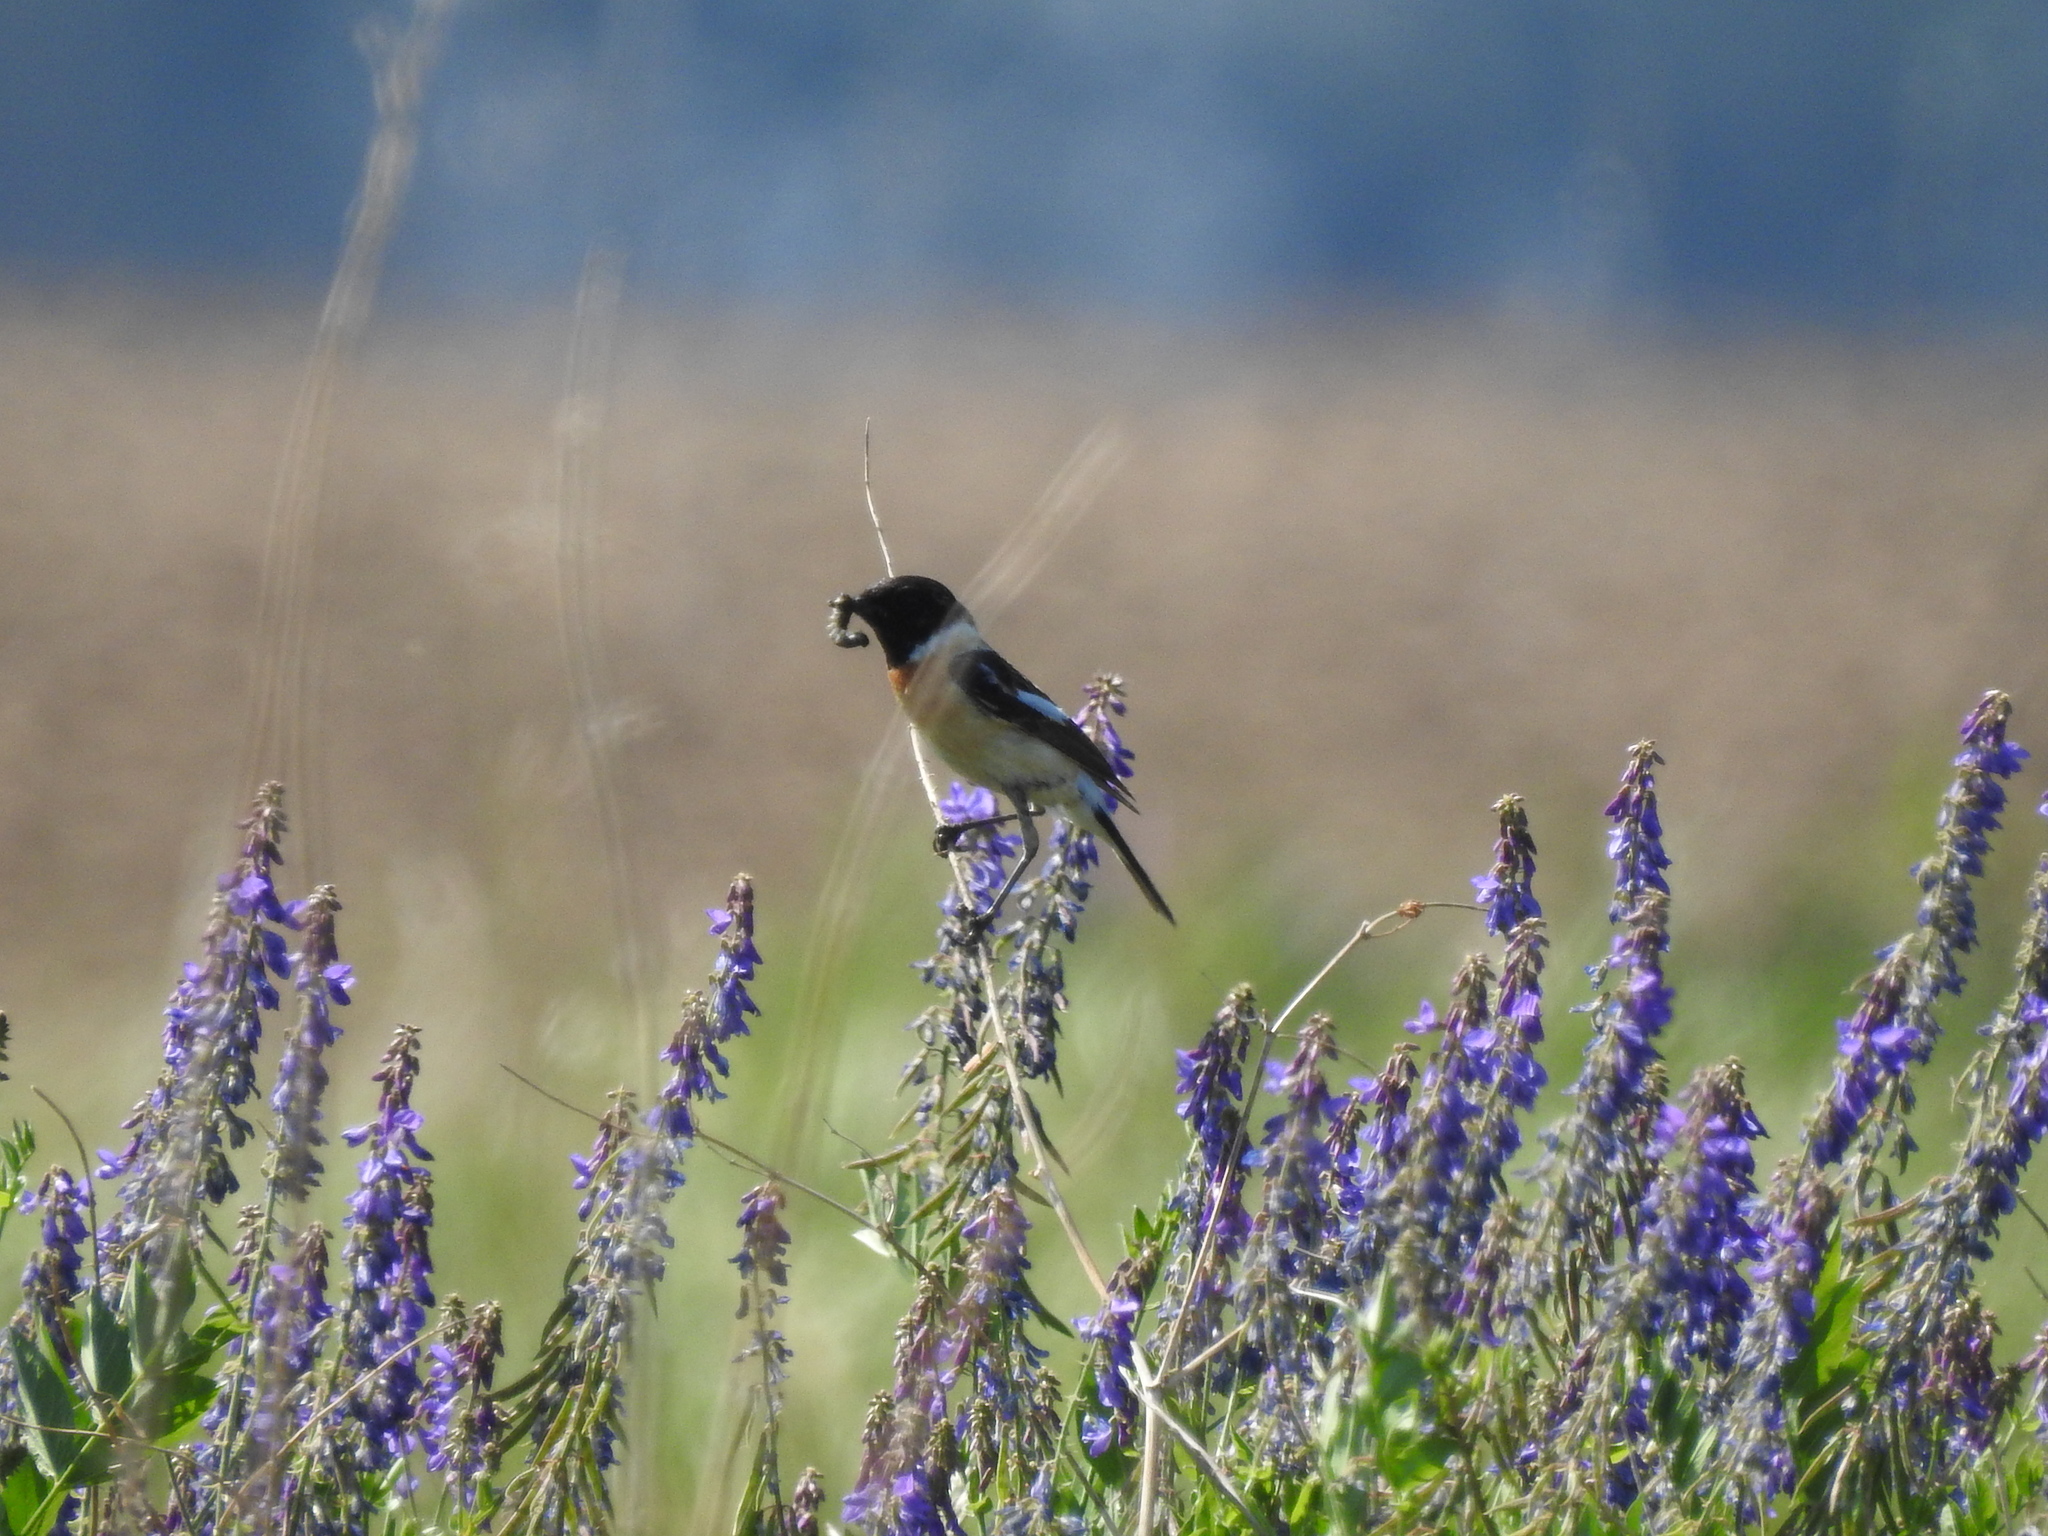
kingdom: Animalia
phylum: Chordata
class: Aves
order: Passeriformes
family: Muscicapidae
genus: Saxicola
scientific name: Saxicola maurus
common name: Siberian stonechat
